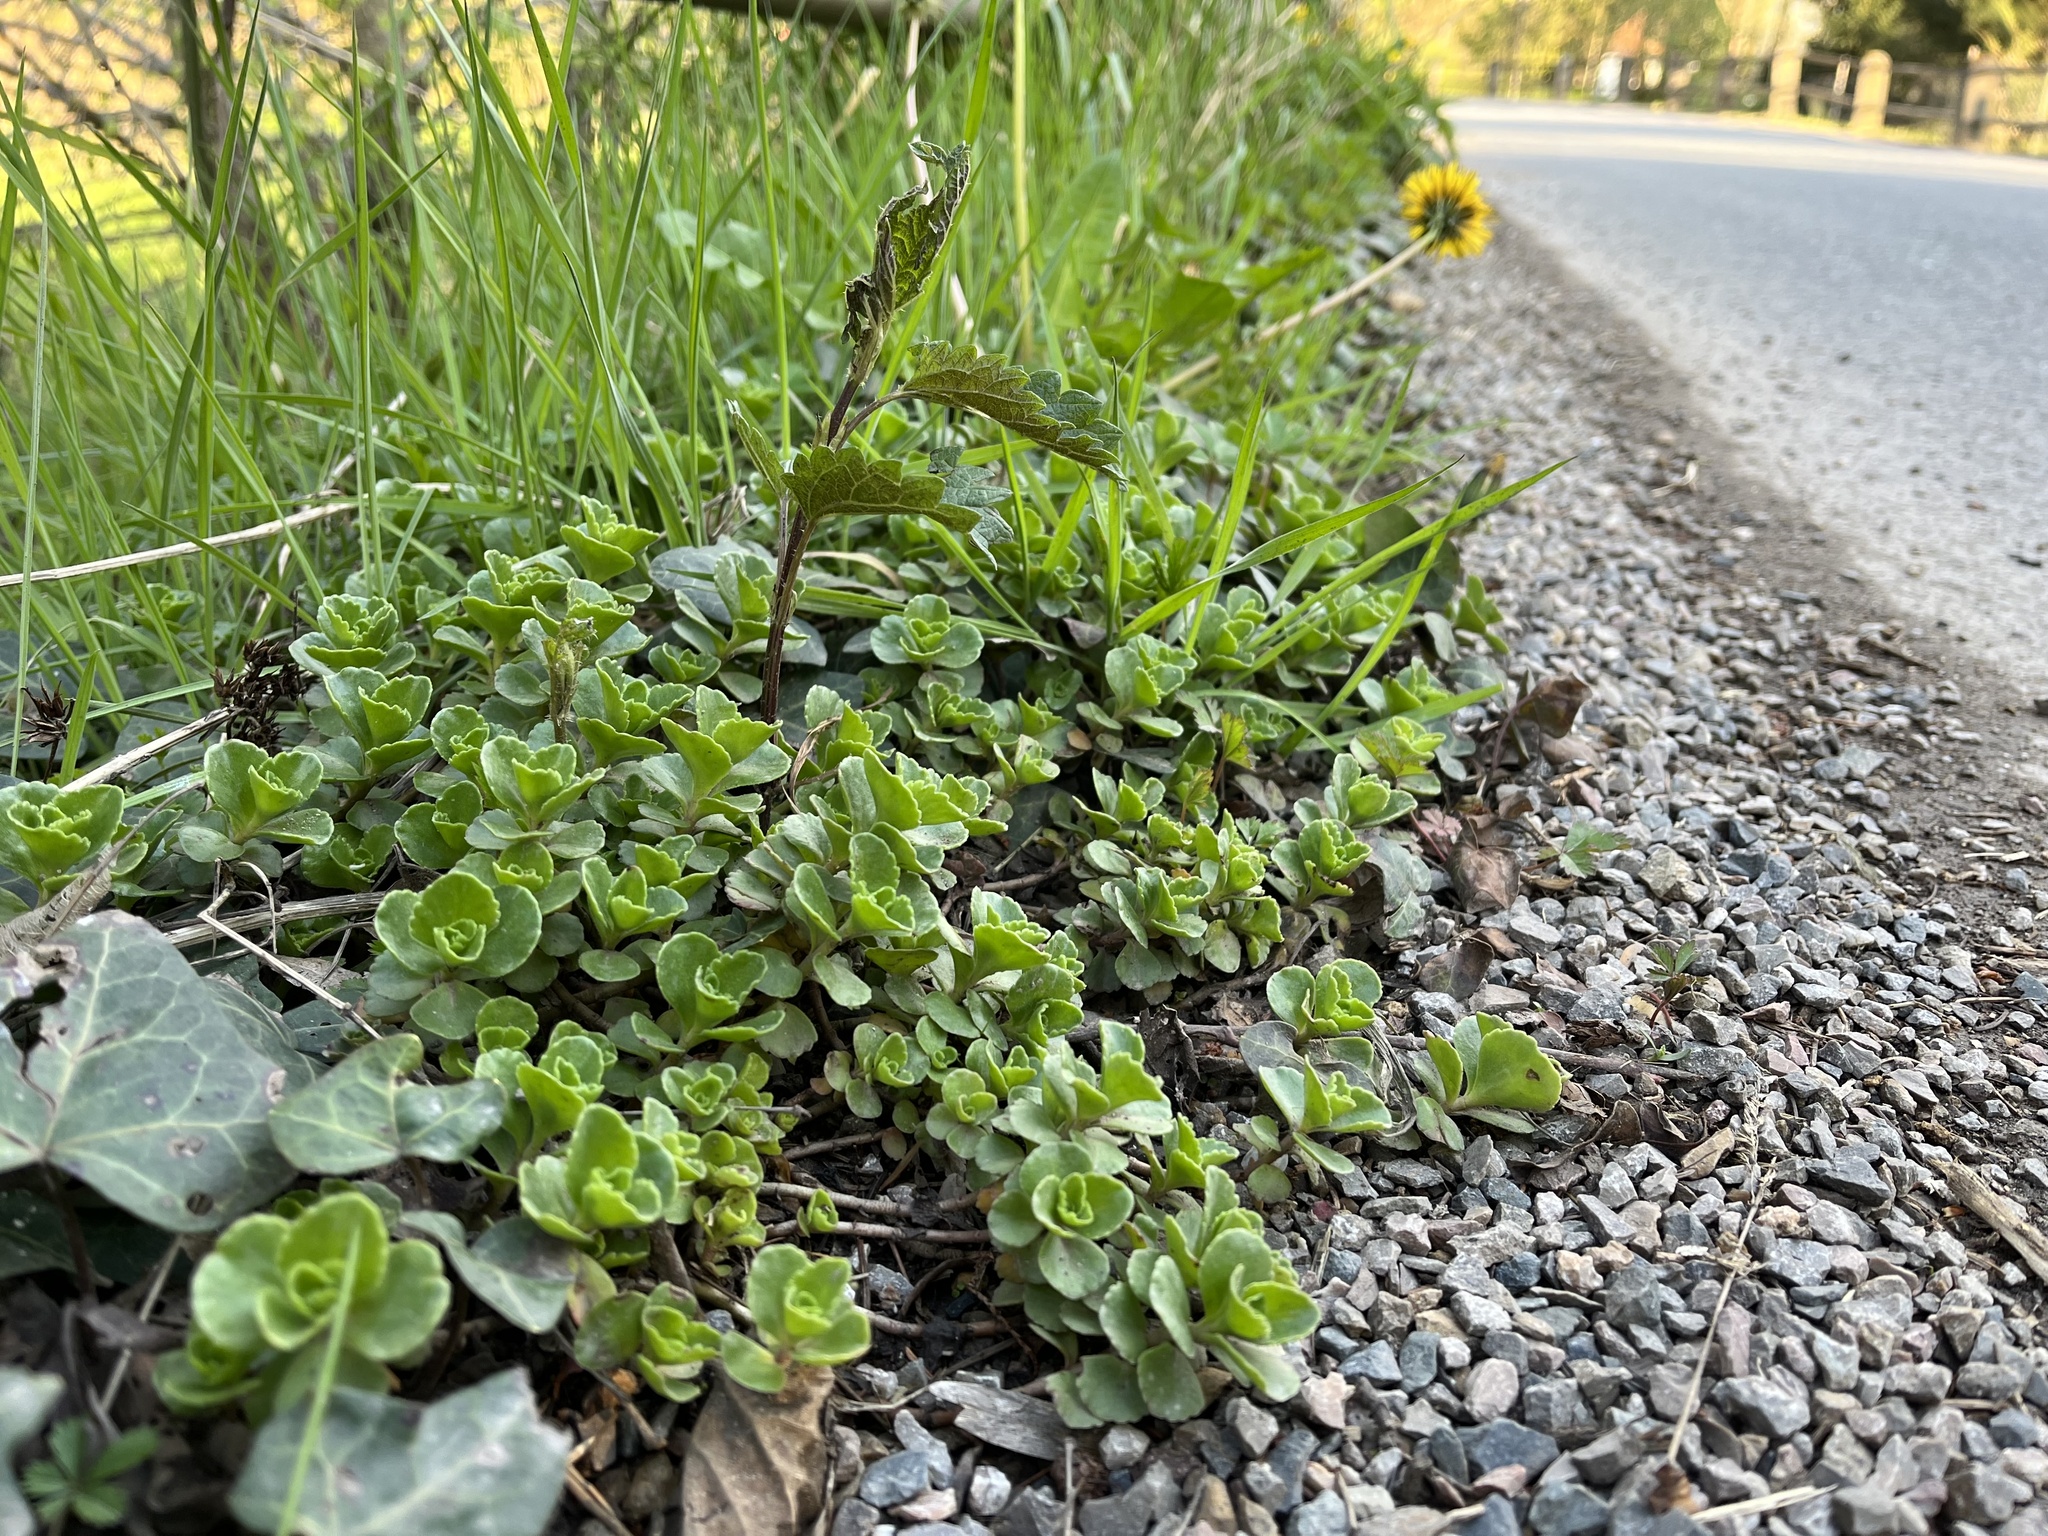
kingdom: Plantae
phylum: Tracheophyta
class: Magnoliopsida
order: Saxifragales
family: Crassulaceae
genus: Phedimus
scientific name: Phedimus spurius
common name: Caucasian stonecrop
